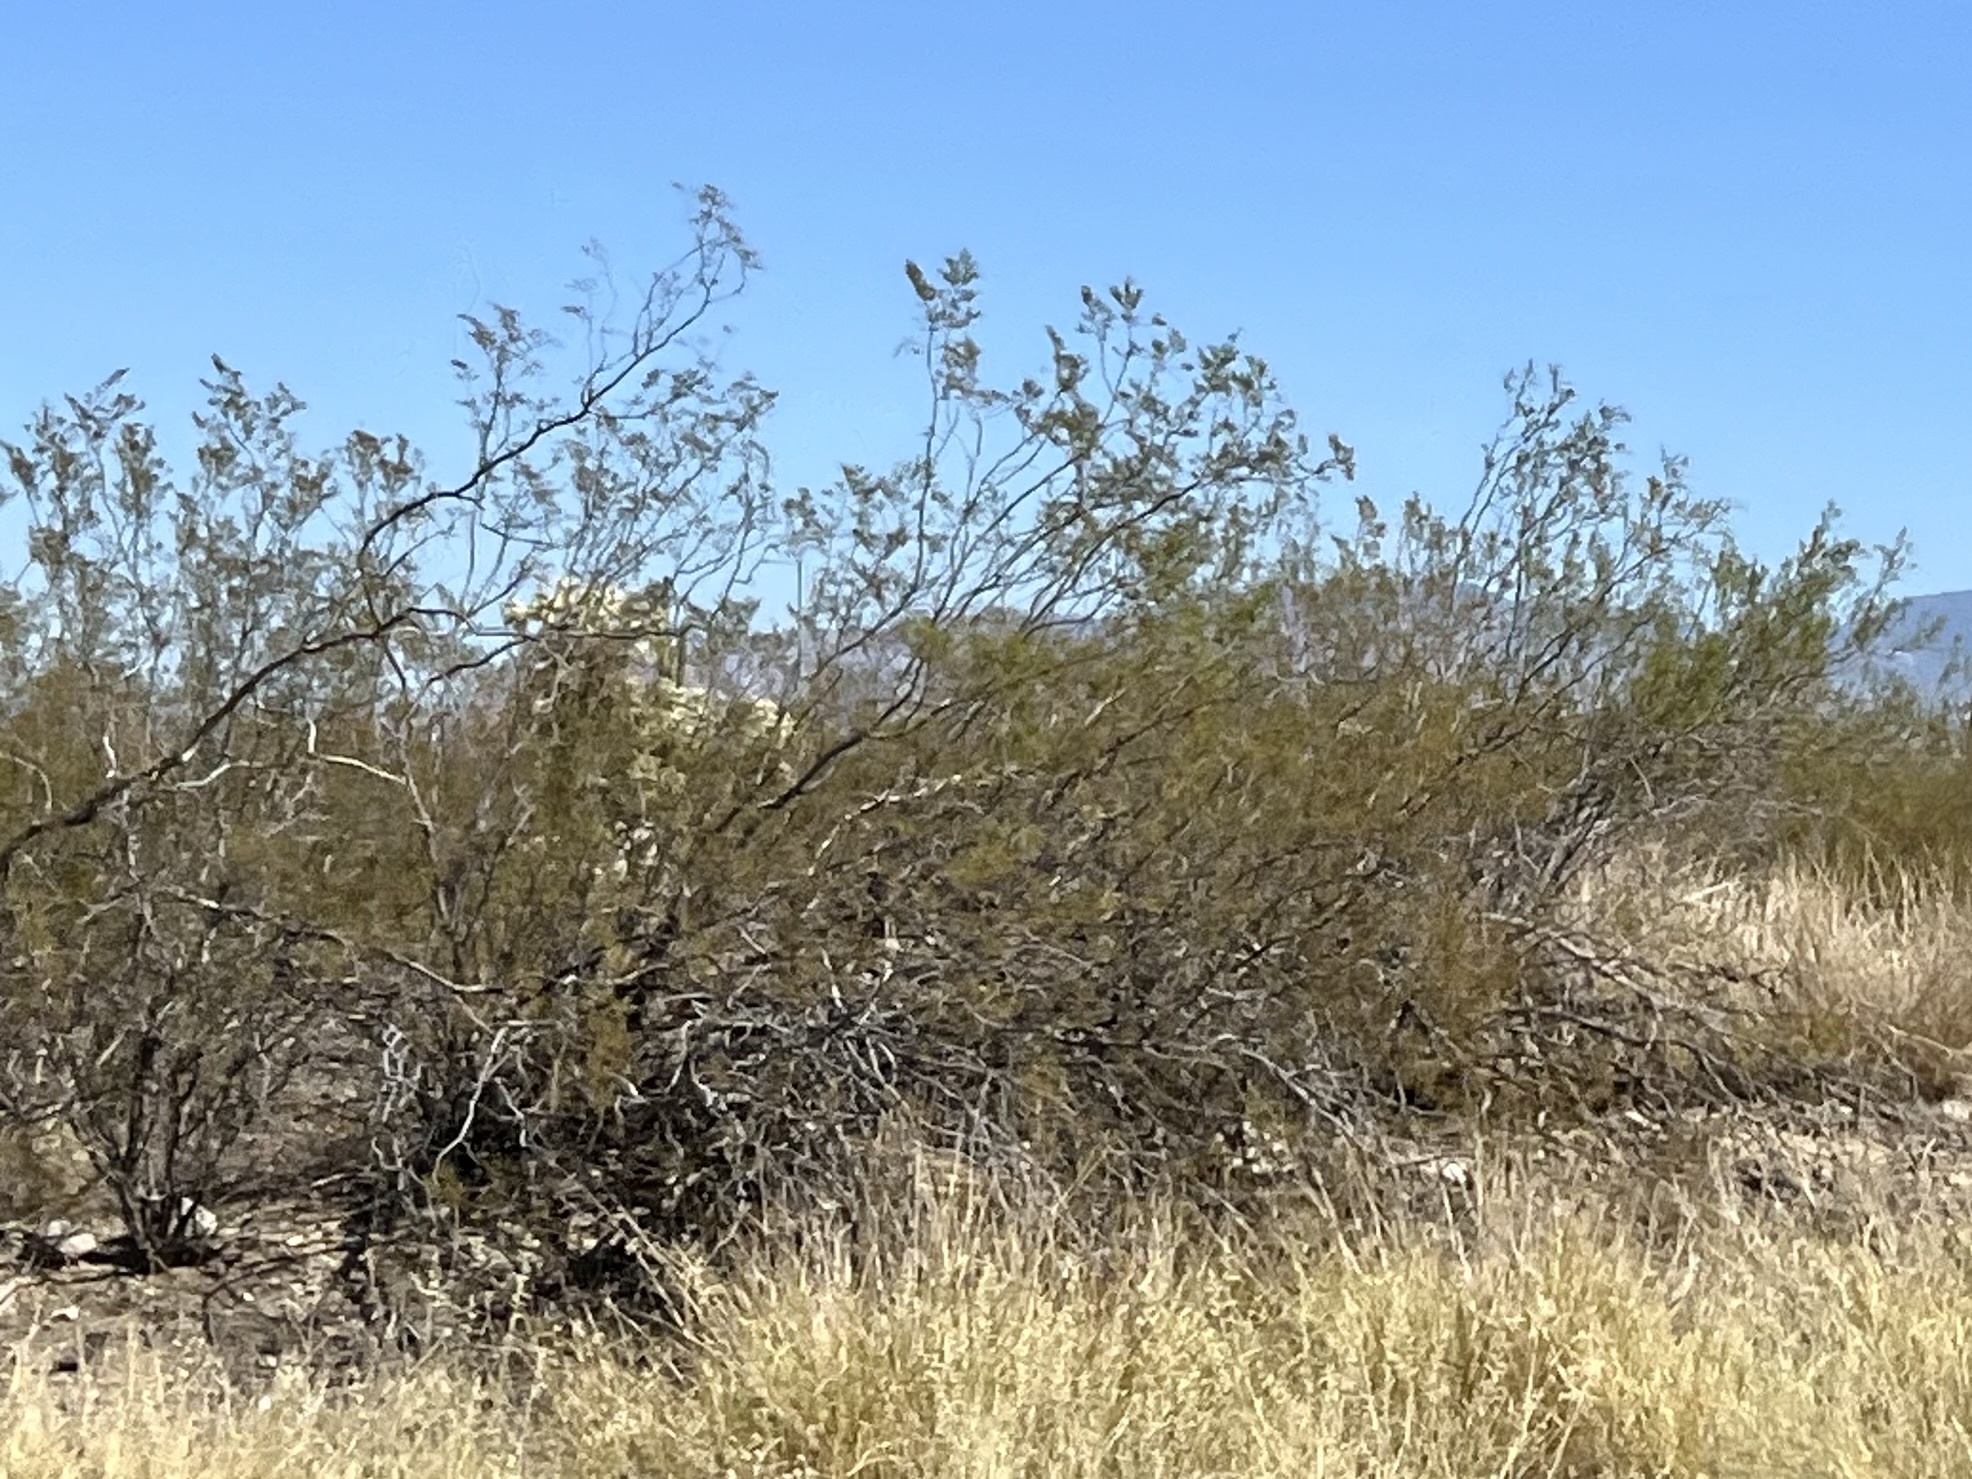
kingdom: Plantae
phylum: Tracheophyta
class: Magnoliopsida
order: Zygophyllales
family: Zygophyllaceae
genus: Larrea
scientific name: Larrea tridentata
